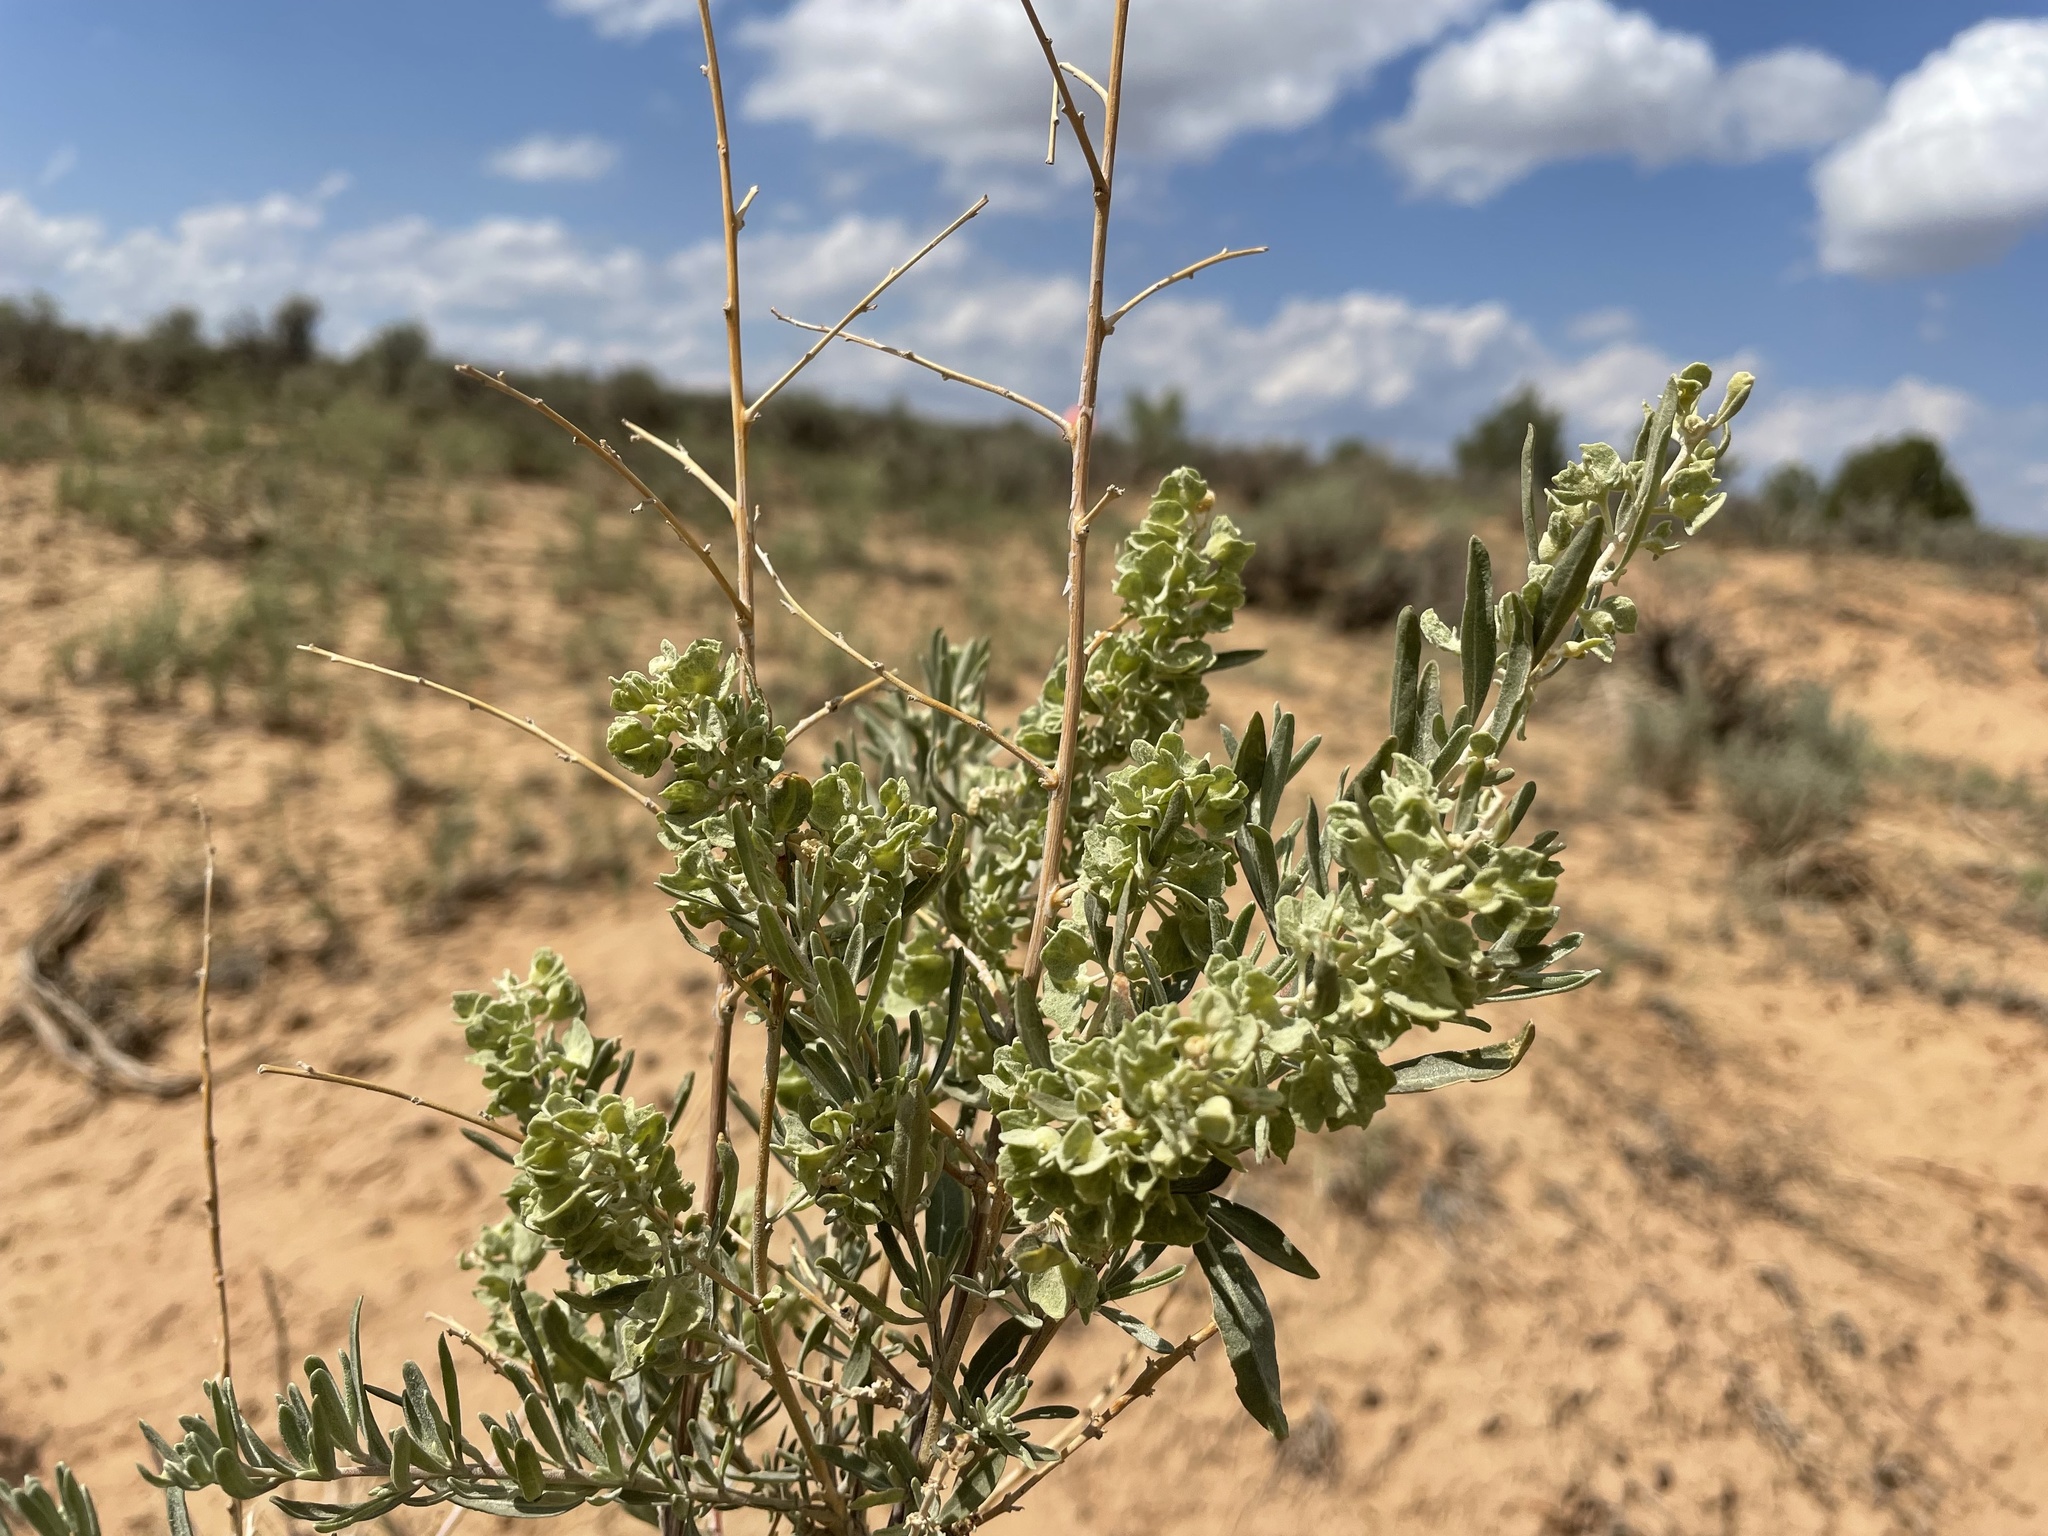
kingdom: Plantae
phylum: Tracheophyta
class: Magnoliopsida
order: Caryophyllales
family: Amaranthaceae
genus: Atriplex
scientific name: Atriplex canescens
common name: Four-wing saltbush
